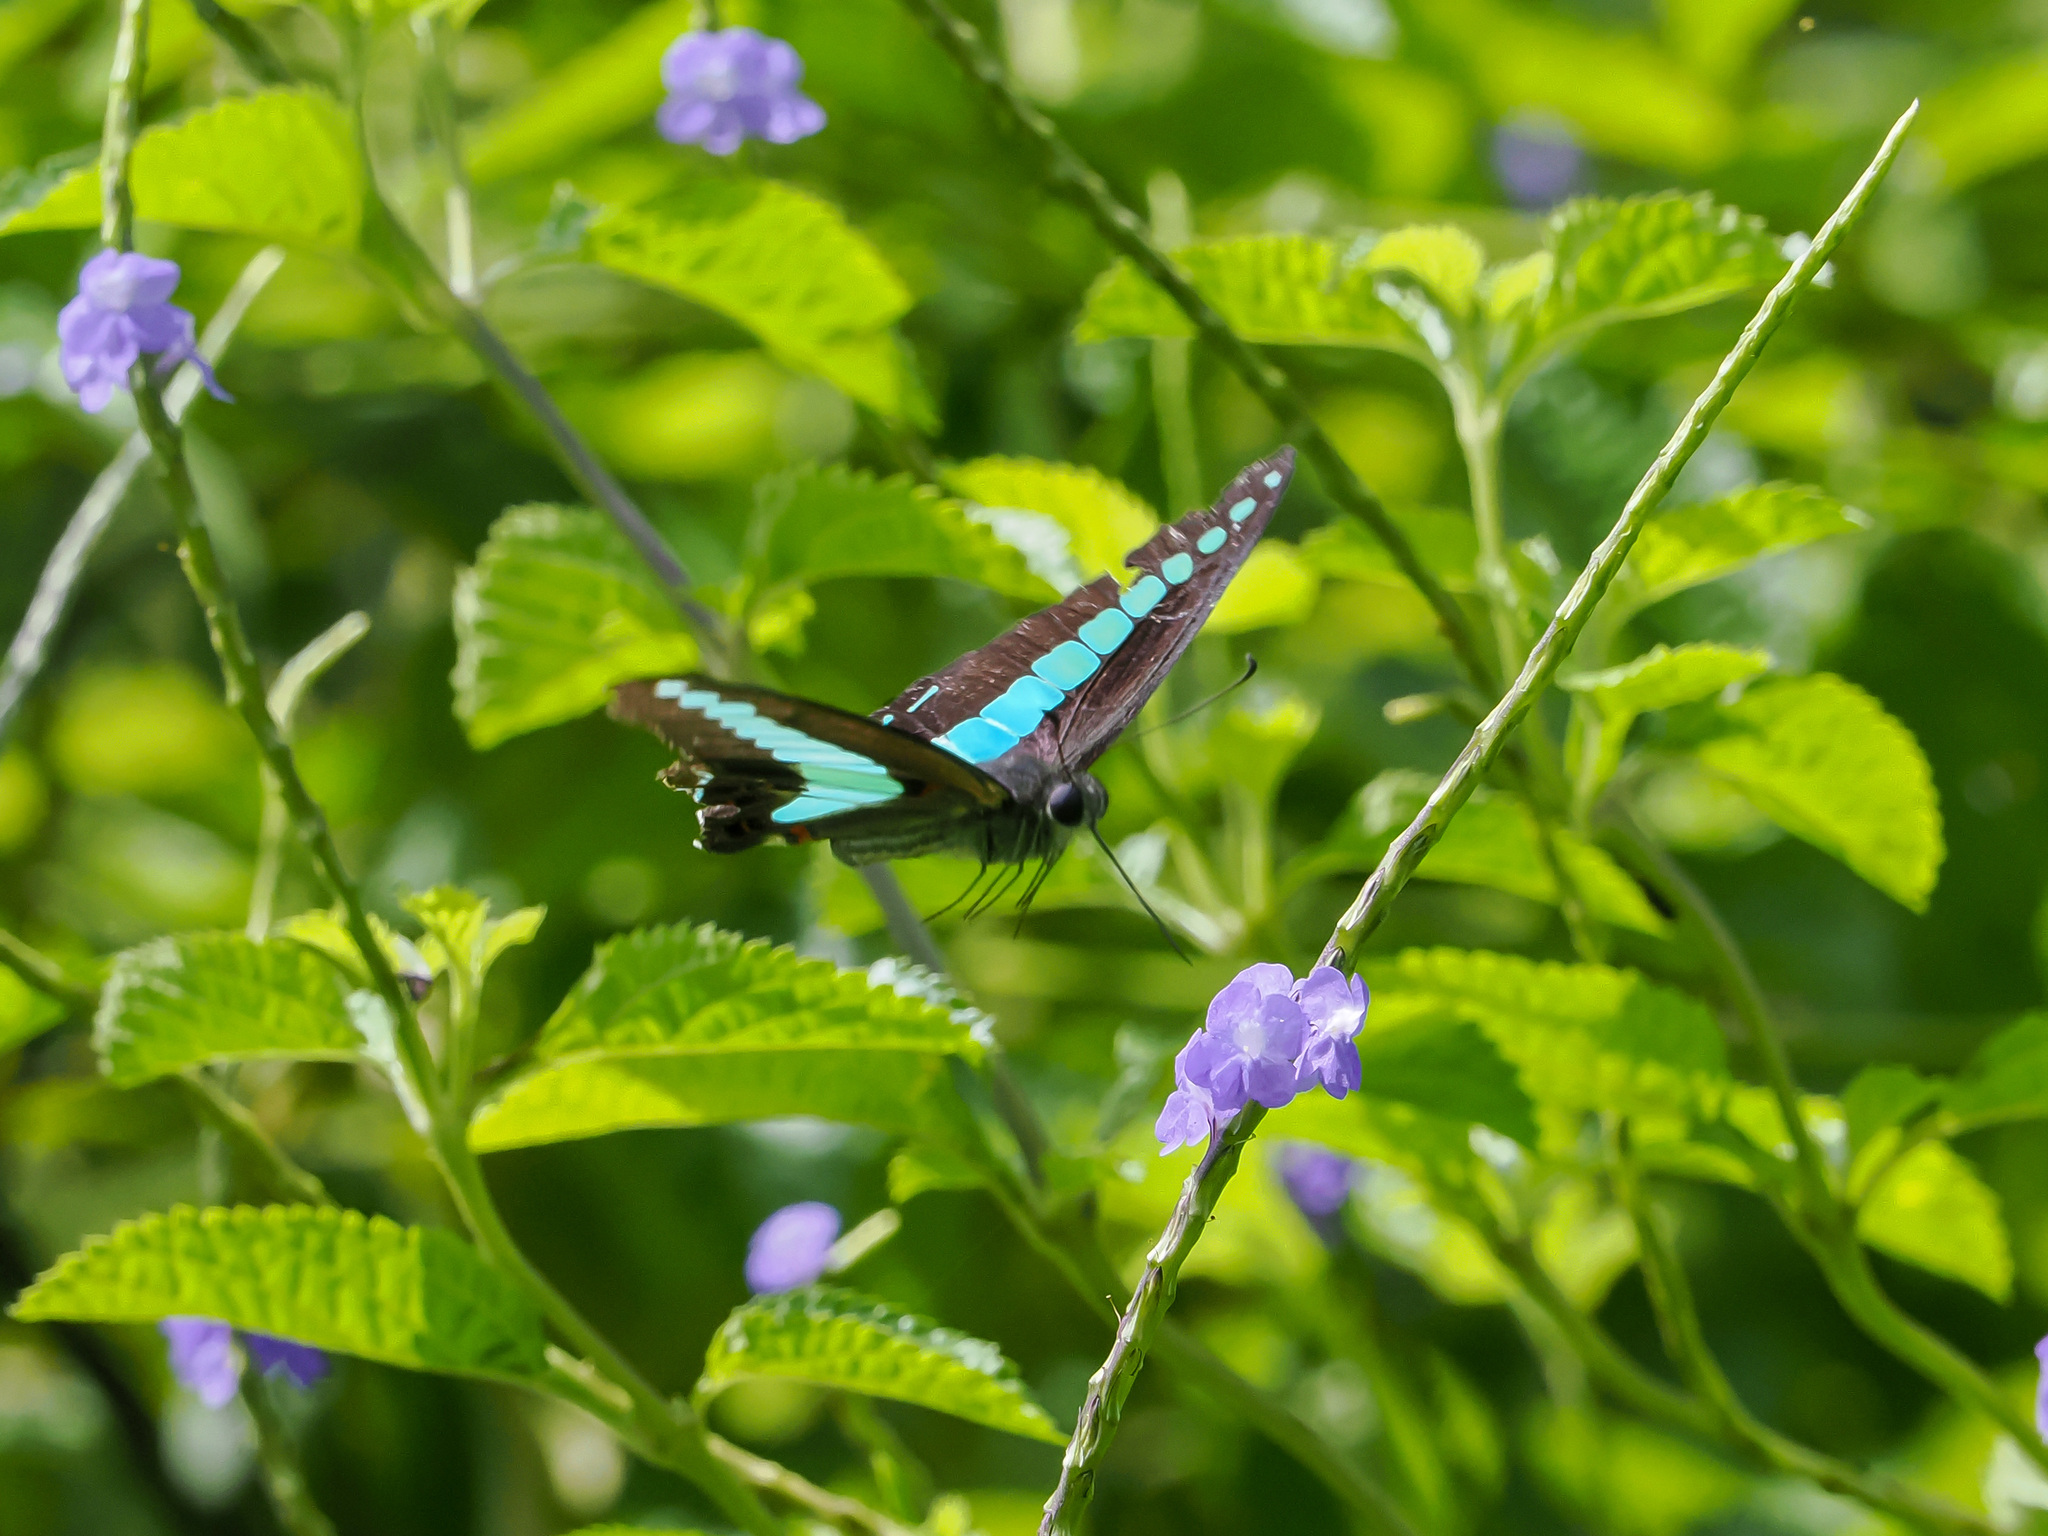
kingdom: Fungi
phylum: Ascomycota
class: Sordariomycetes
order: Microascales
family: Microascaceae
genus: Graphium
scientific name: Graphium sarpedon
